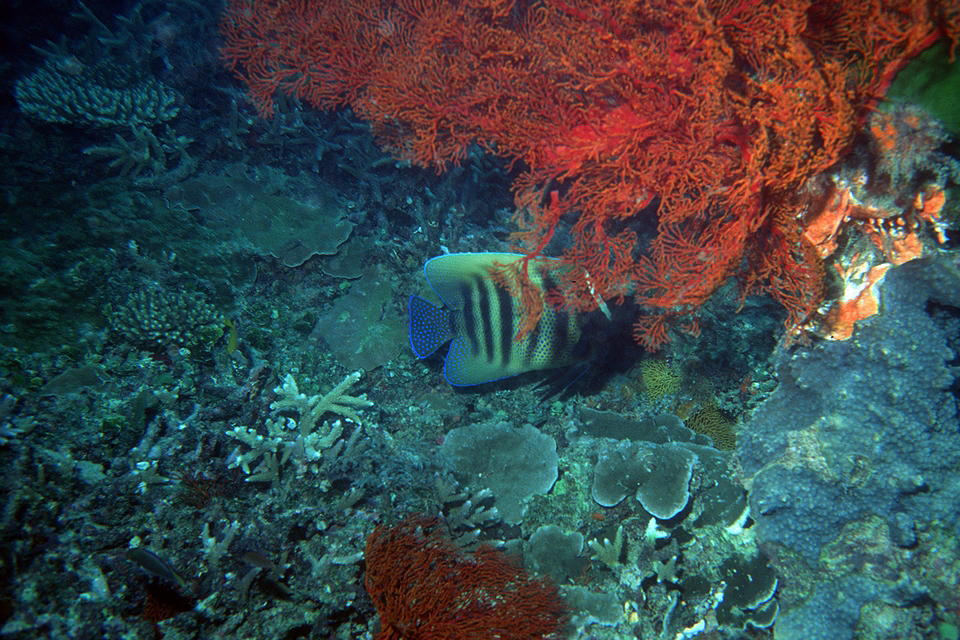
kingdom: Animalia
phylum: Chordata
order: Perciformes
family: Pomacanthidae
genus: Pomacanthus
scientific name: Pomacanthus sexstriatus
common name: Six-banded angelfish
